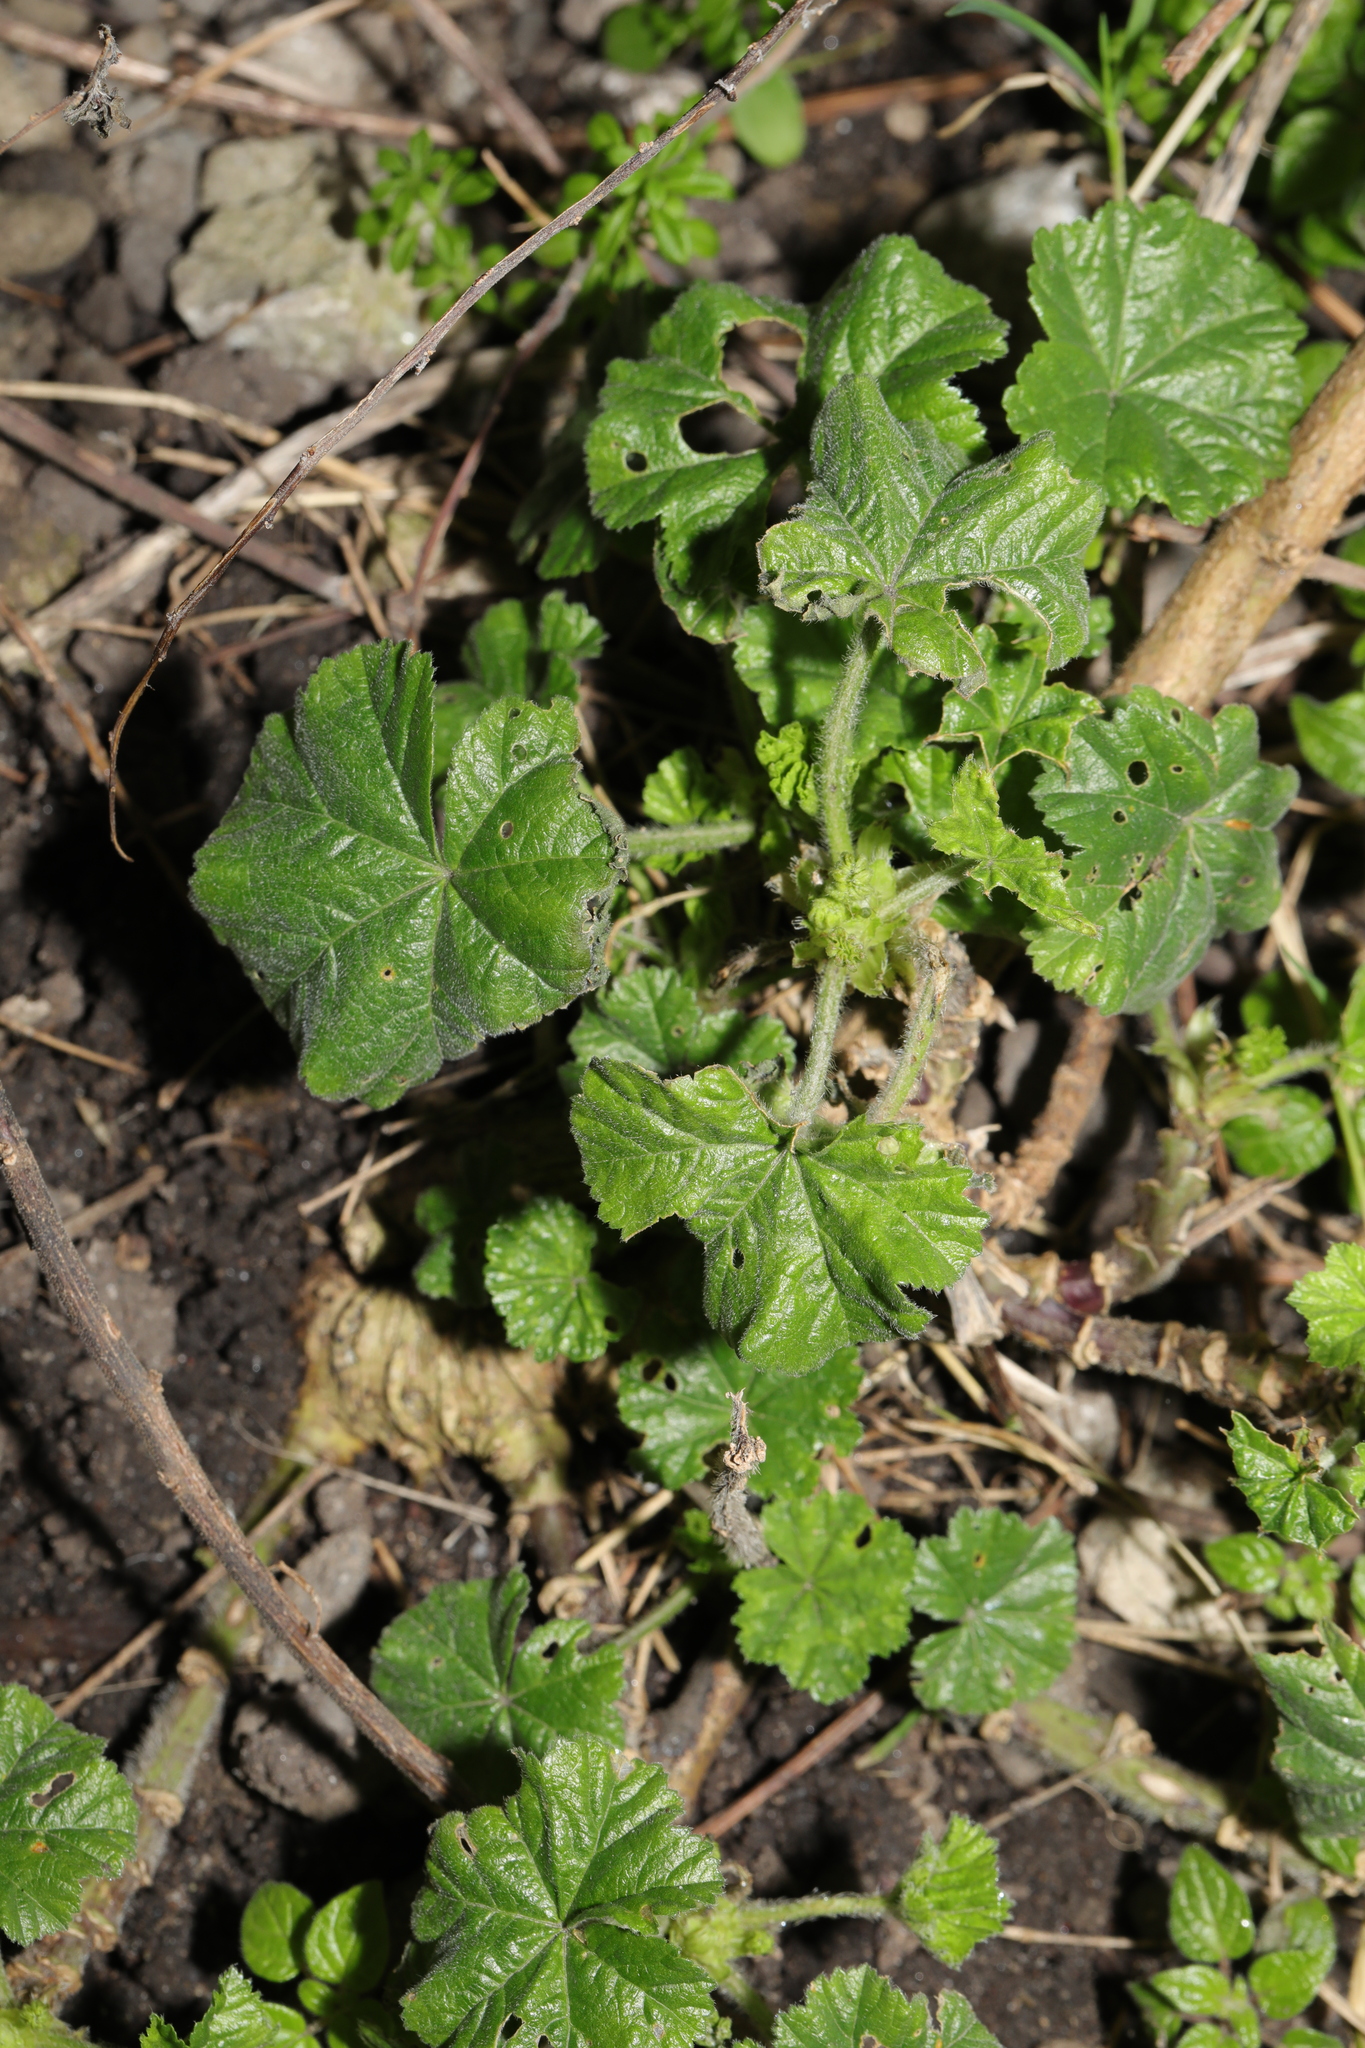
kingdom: Plantae
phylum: Tracheophyta
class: Magnoliopsida
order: Malvales
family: Malvaceae
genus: Malva
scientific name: Malva sylvestris
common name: Common mallow
